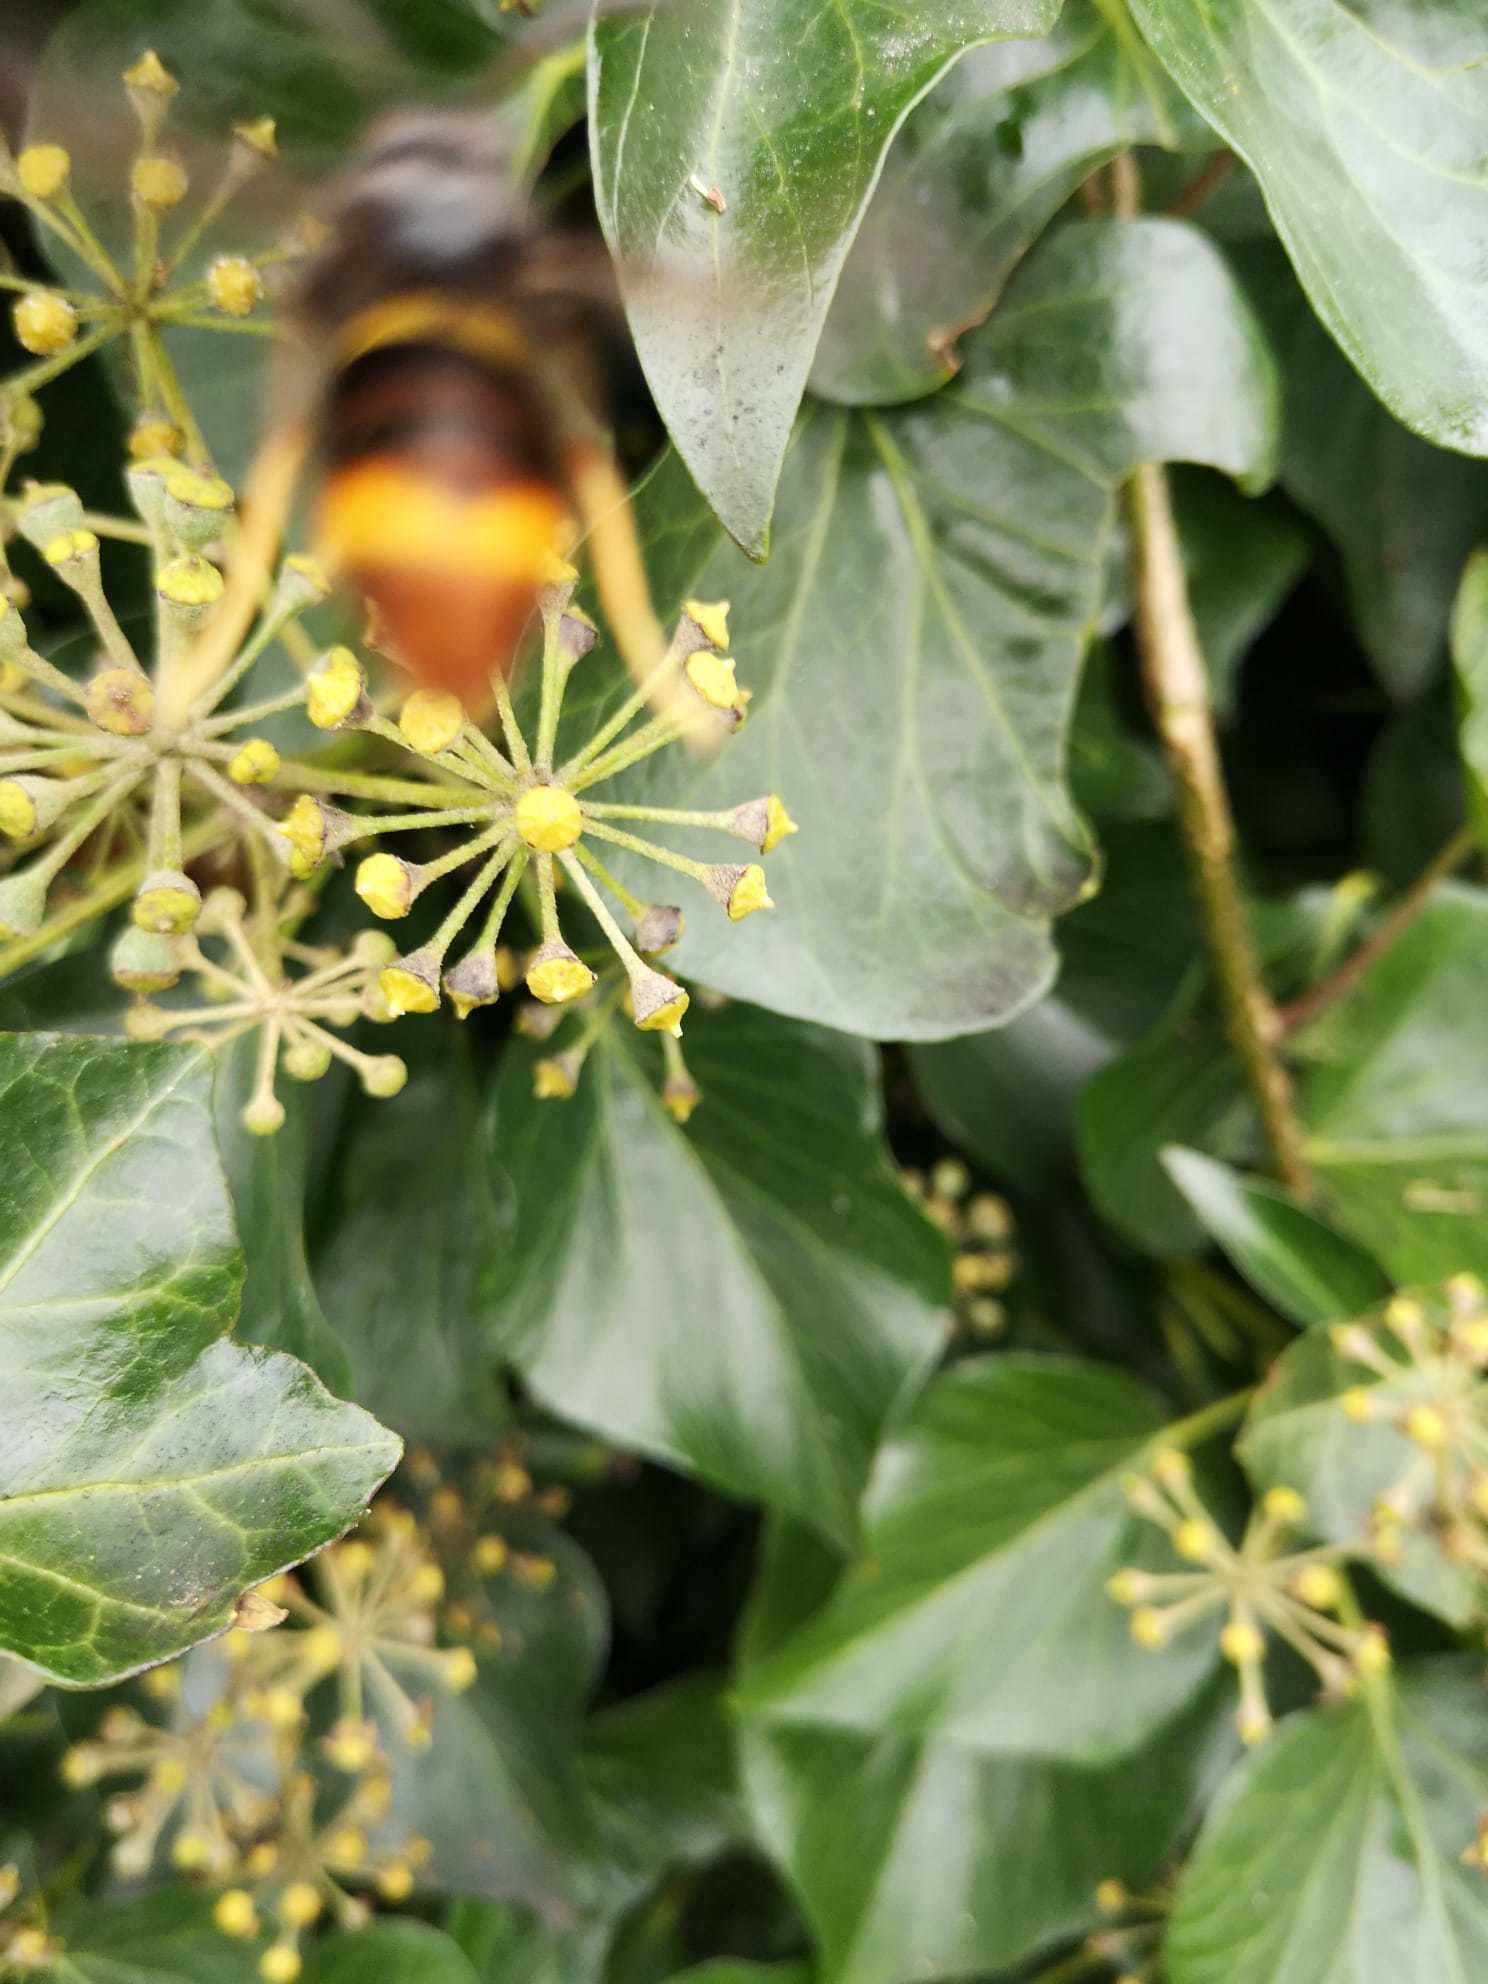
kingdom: Animalia
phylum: Arthropoda
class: Insecta
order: Hymenoptera
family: Vespidae
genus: Vespa
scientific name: Vespa velutina
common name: Asian hornet
